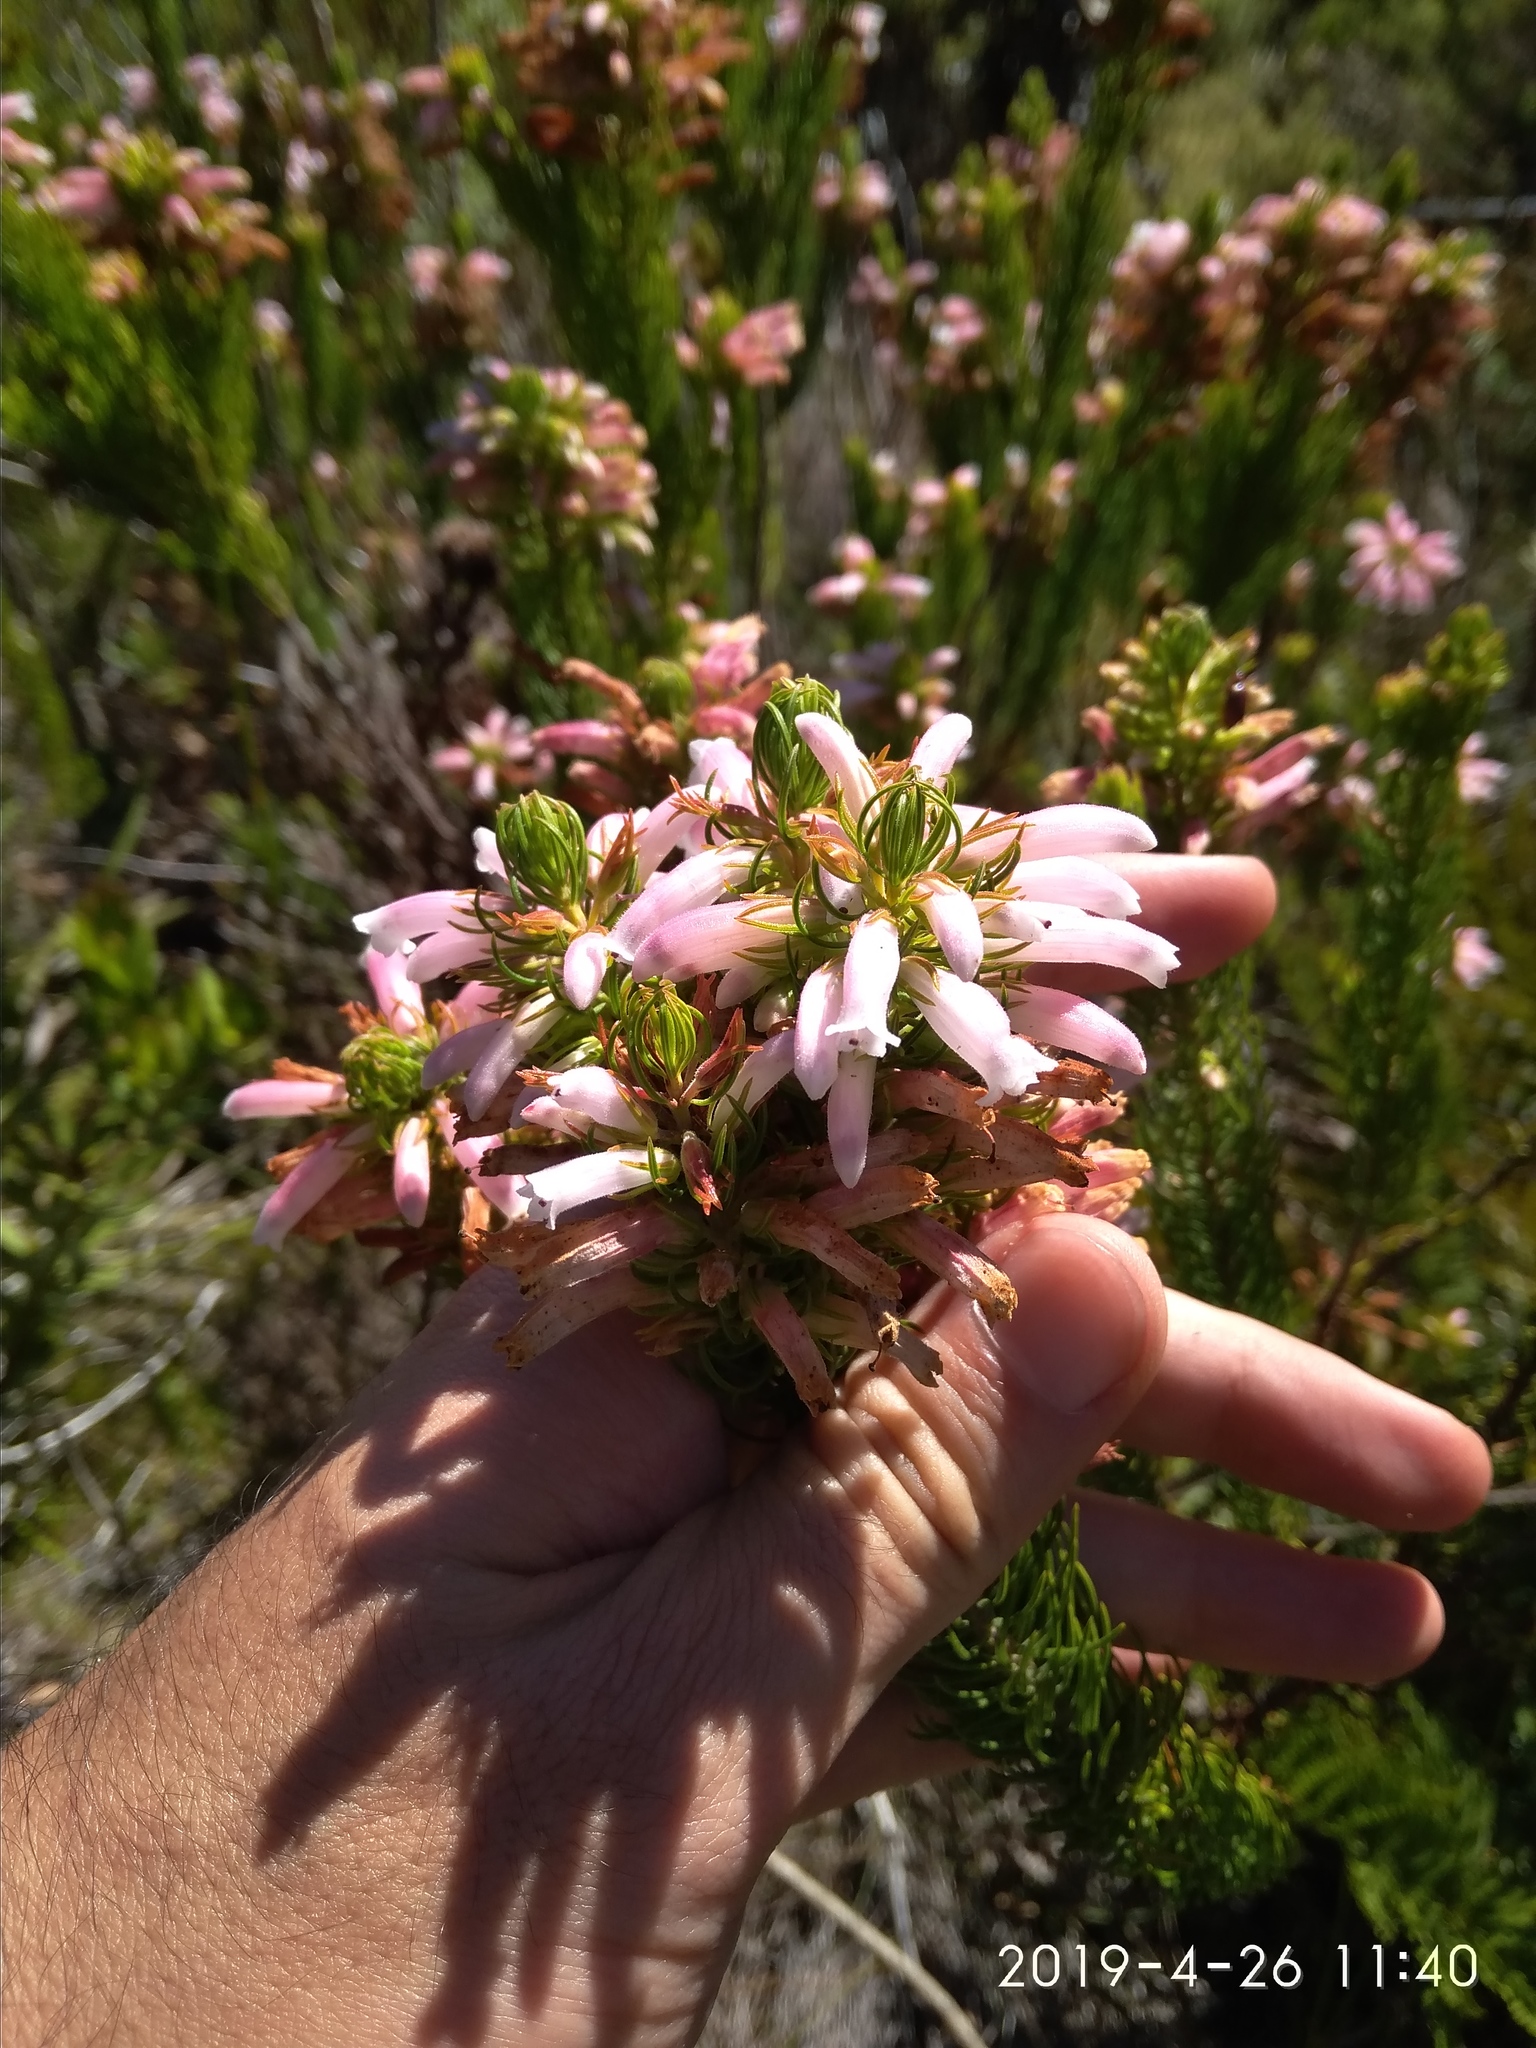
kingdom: Plantae
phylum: Tracheophyta
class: Magnoliopsida
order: Ericales
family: Ericaceae
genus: Erica
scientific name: Erica viscaria
